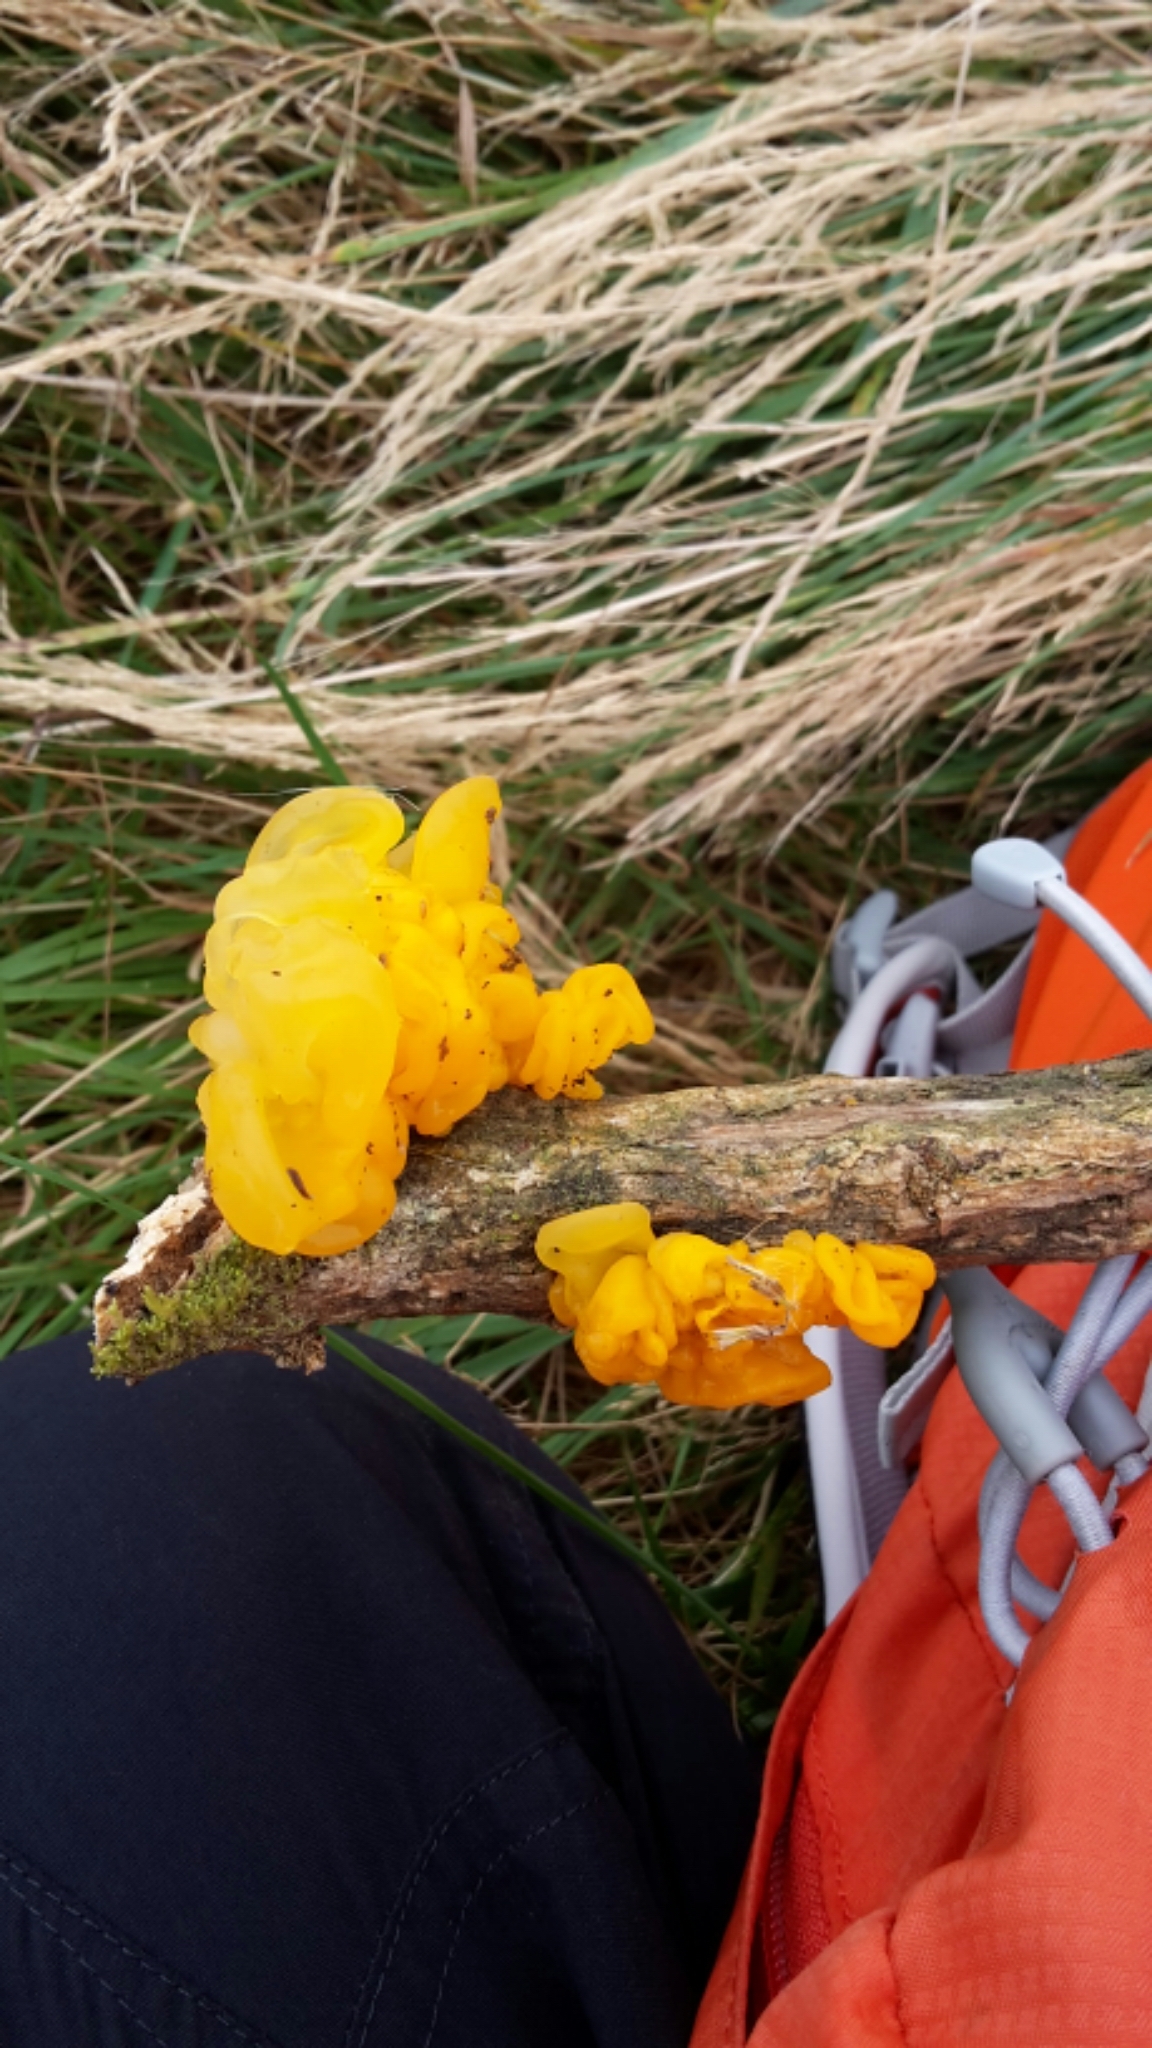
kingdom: Fungi
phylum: Basidiomycota
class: Tremellomycetes
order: Tremellales
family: Tremellaceae
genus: Tremella
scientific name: Tremella mesenterica
